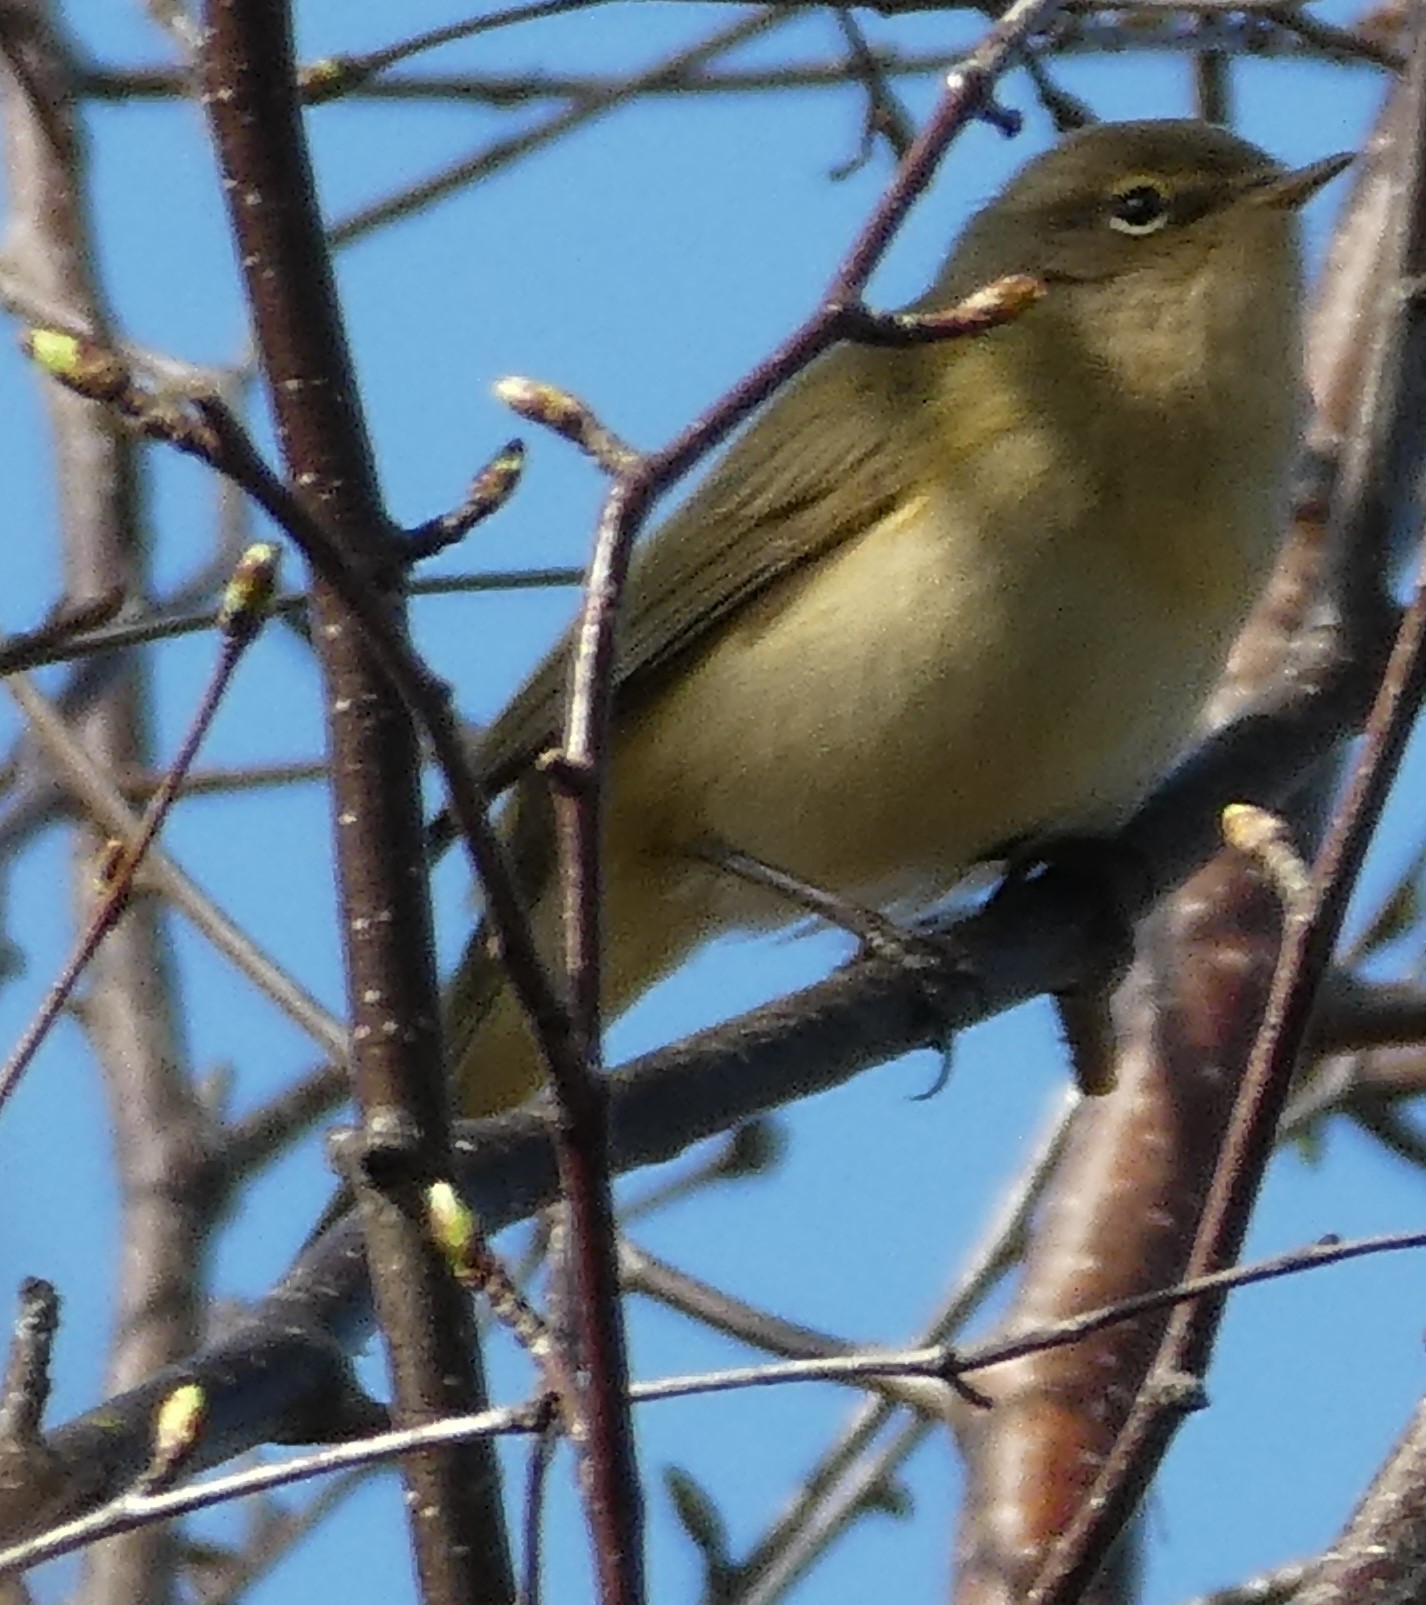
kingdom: Animalia
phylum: Chordata
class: Aves
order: Passeriformes
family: Phylloscopidae
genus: Phylloscopus
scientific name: Phylloscopus collybita
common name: Common chiffchaff
